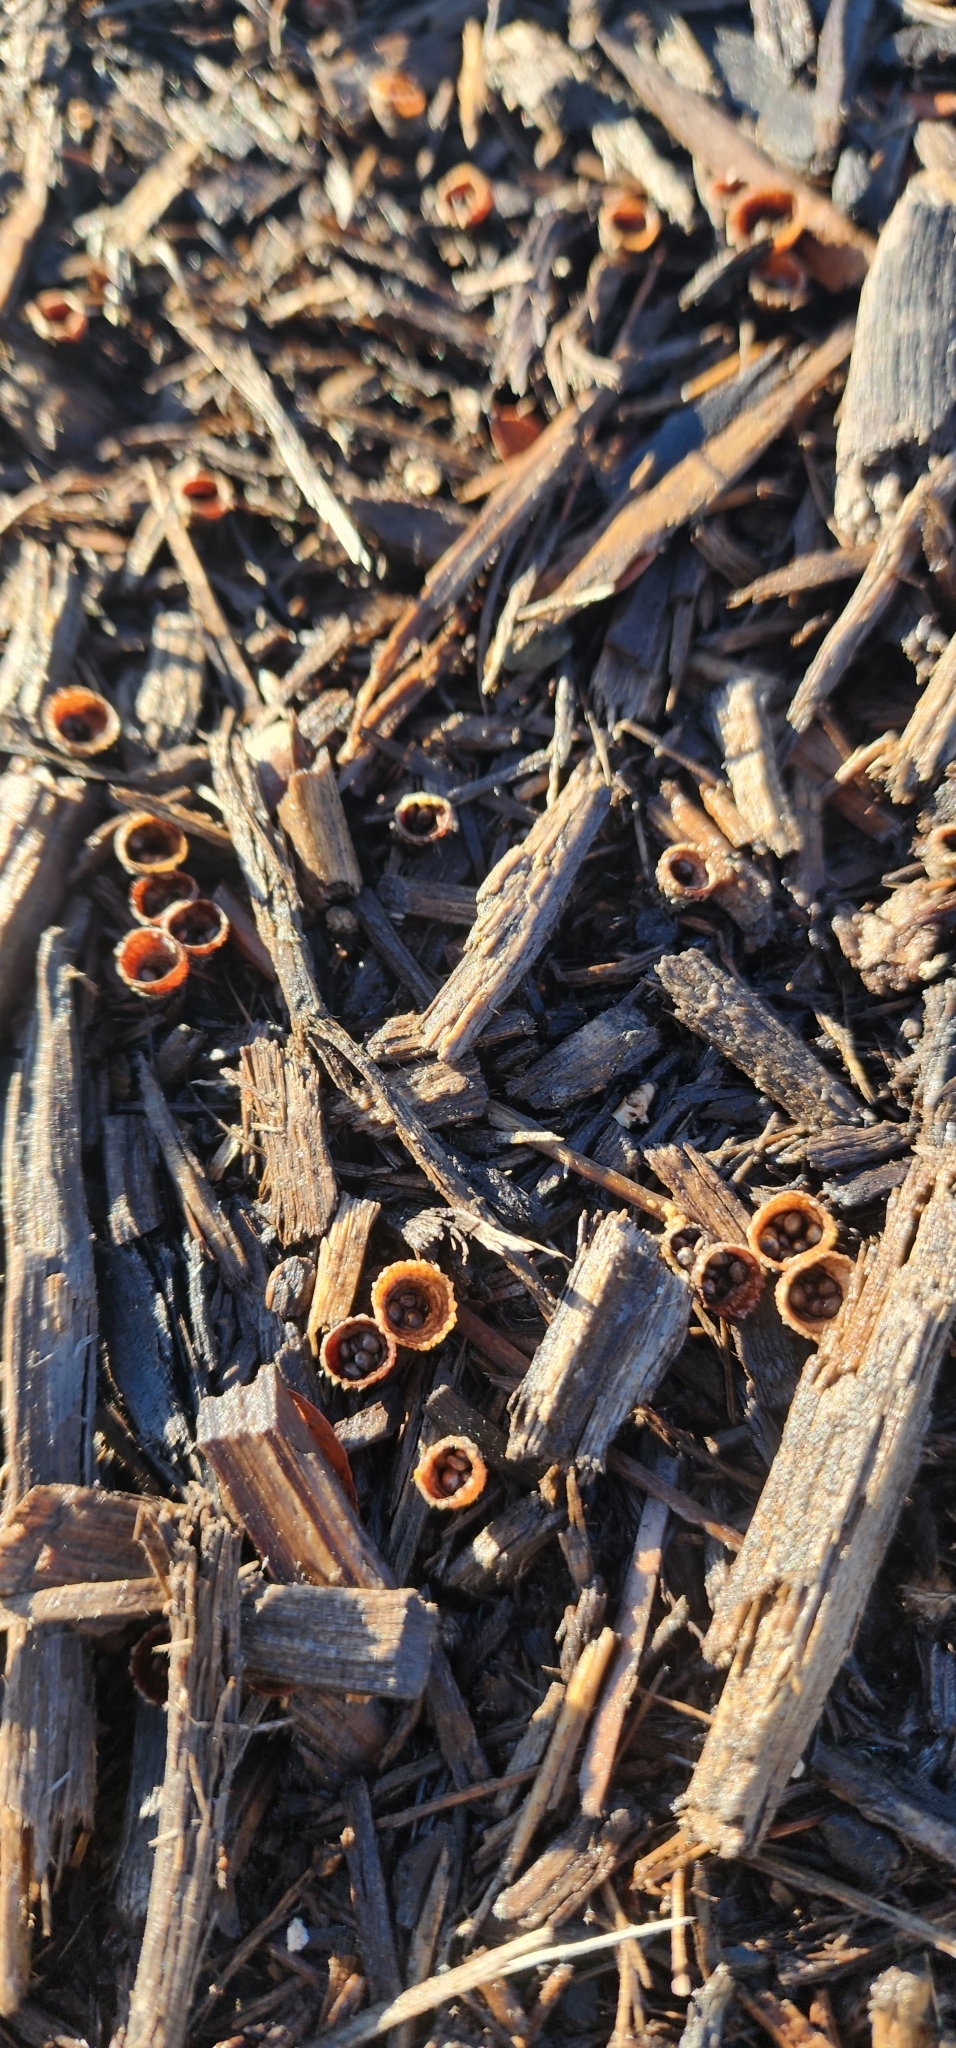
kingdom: Fungi
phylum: Basidiomycota
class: Agaricomycetes
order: Agaricales
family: Agaricaceae
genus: Cyathus
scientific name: Cyathus striatus
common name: Fluted bird's nest
